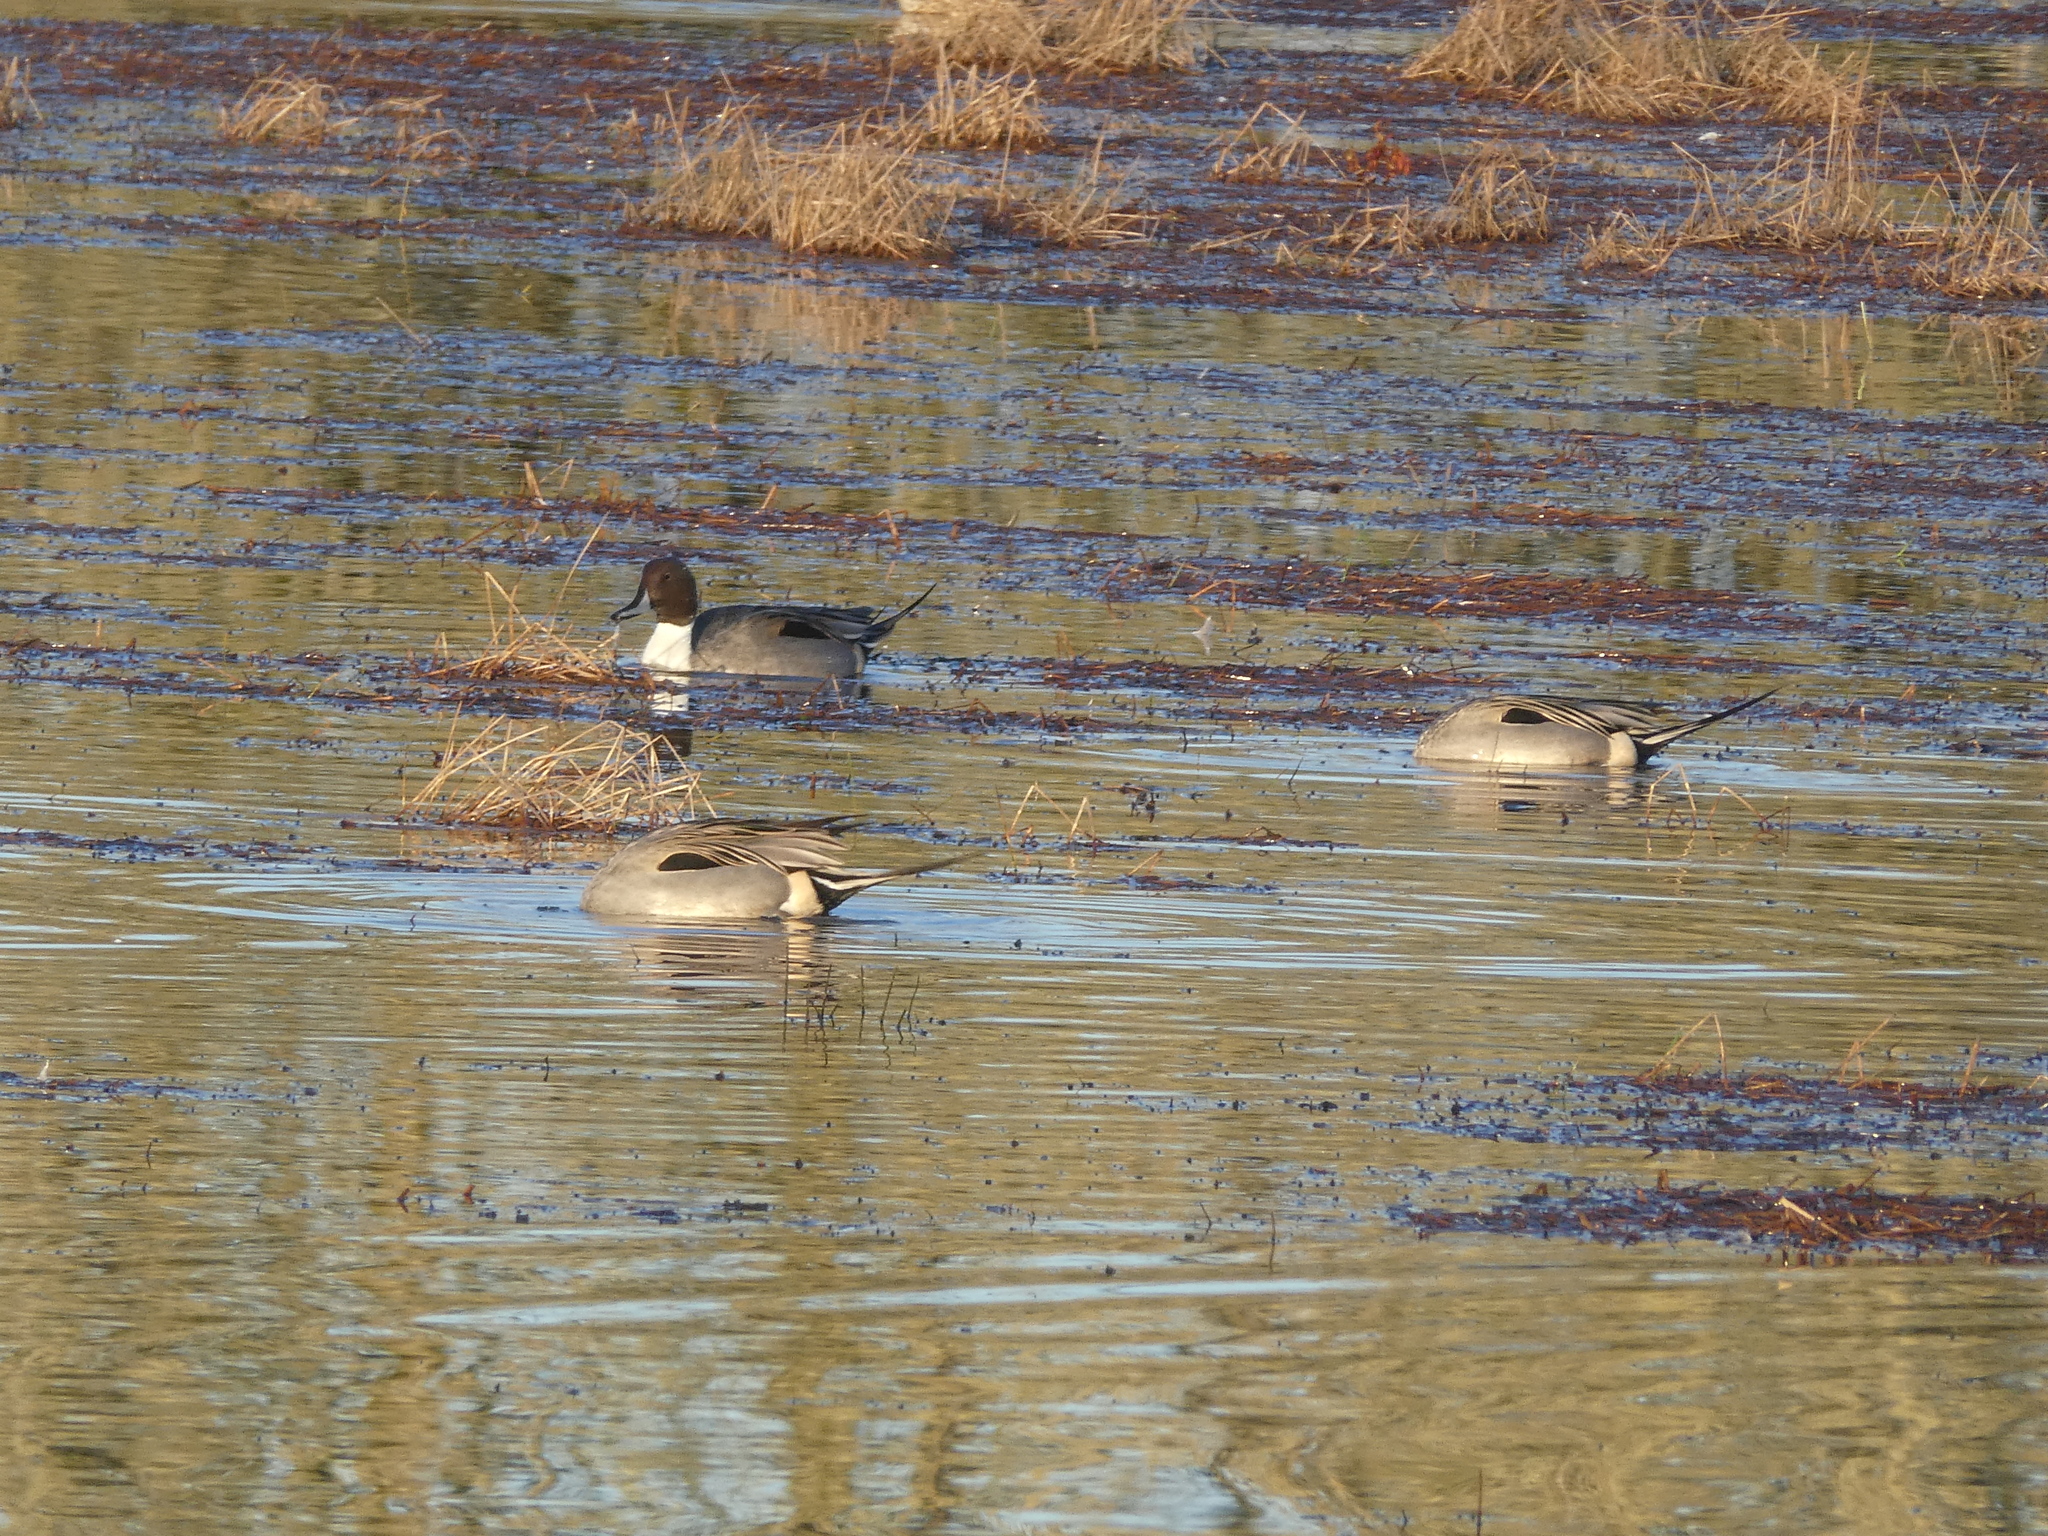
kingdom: Animalia
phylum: Chordata
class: Aves
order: Anseriformes
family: Anatidae
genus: Anas
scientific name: Anas acuta
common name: Northern pintail
